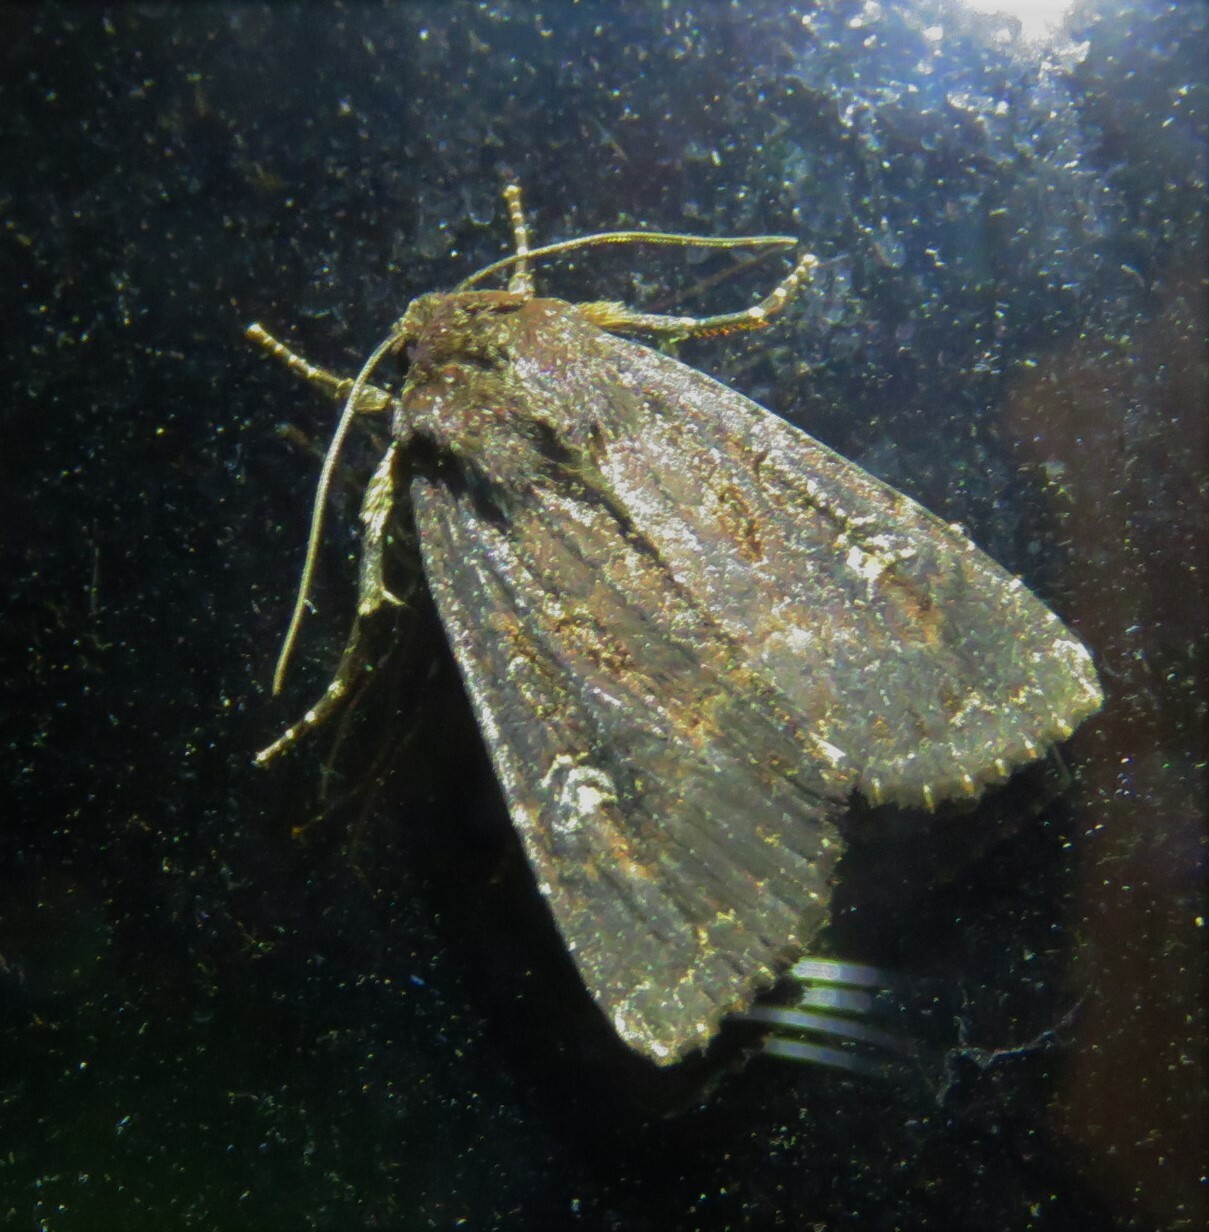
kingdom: Animalia
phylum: Arthropoda
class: Insecta
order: Lepidoptera
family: Noctuidae
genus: Apamea
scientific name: Apamea dubitans
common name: Doubtful apamea moth
